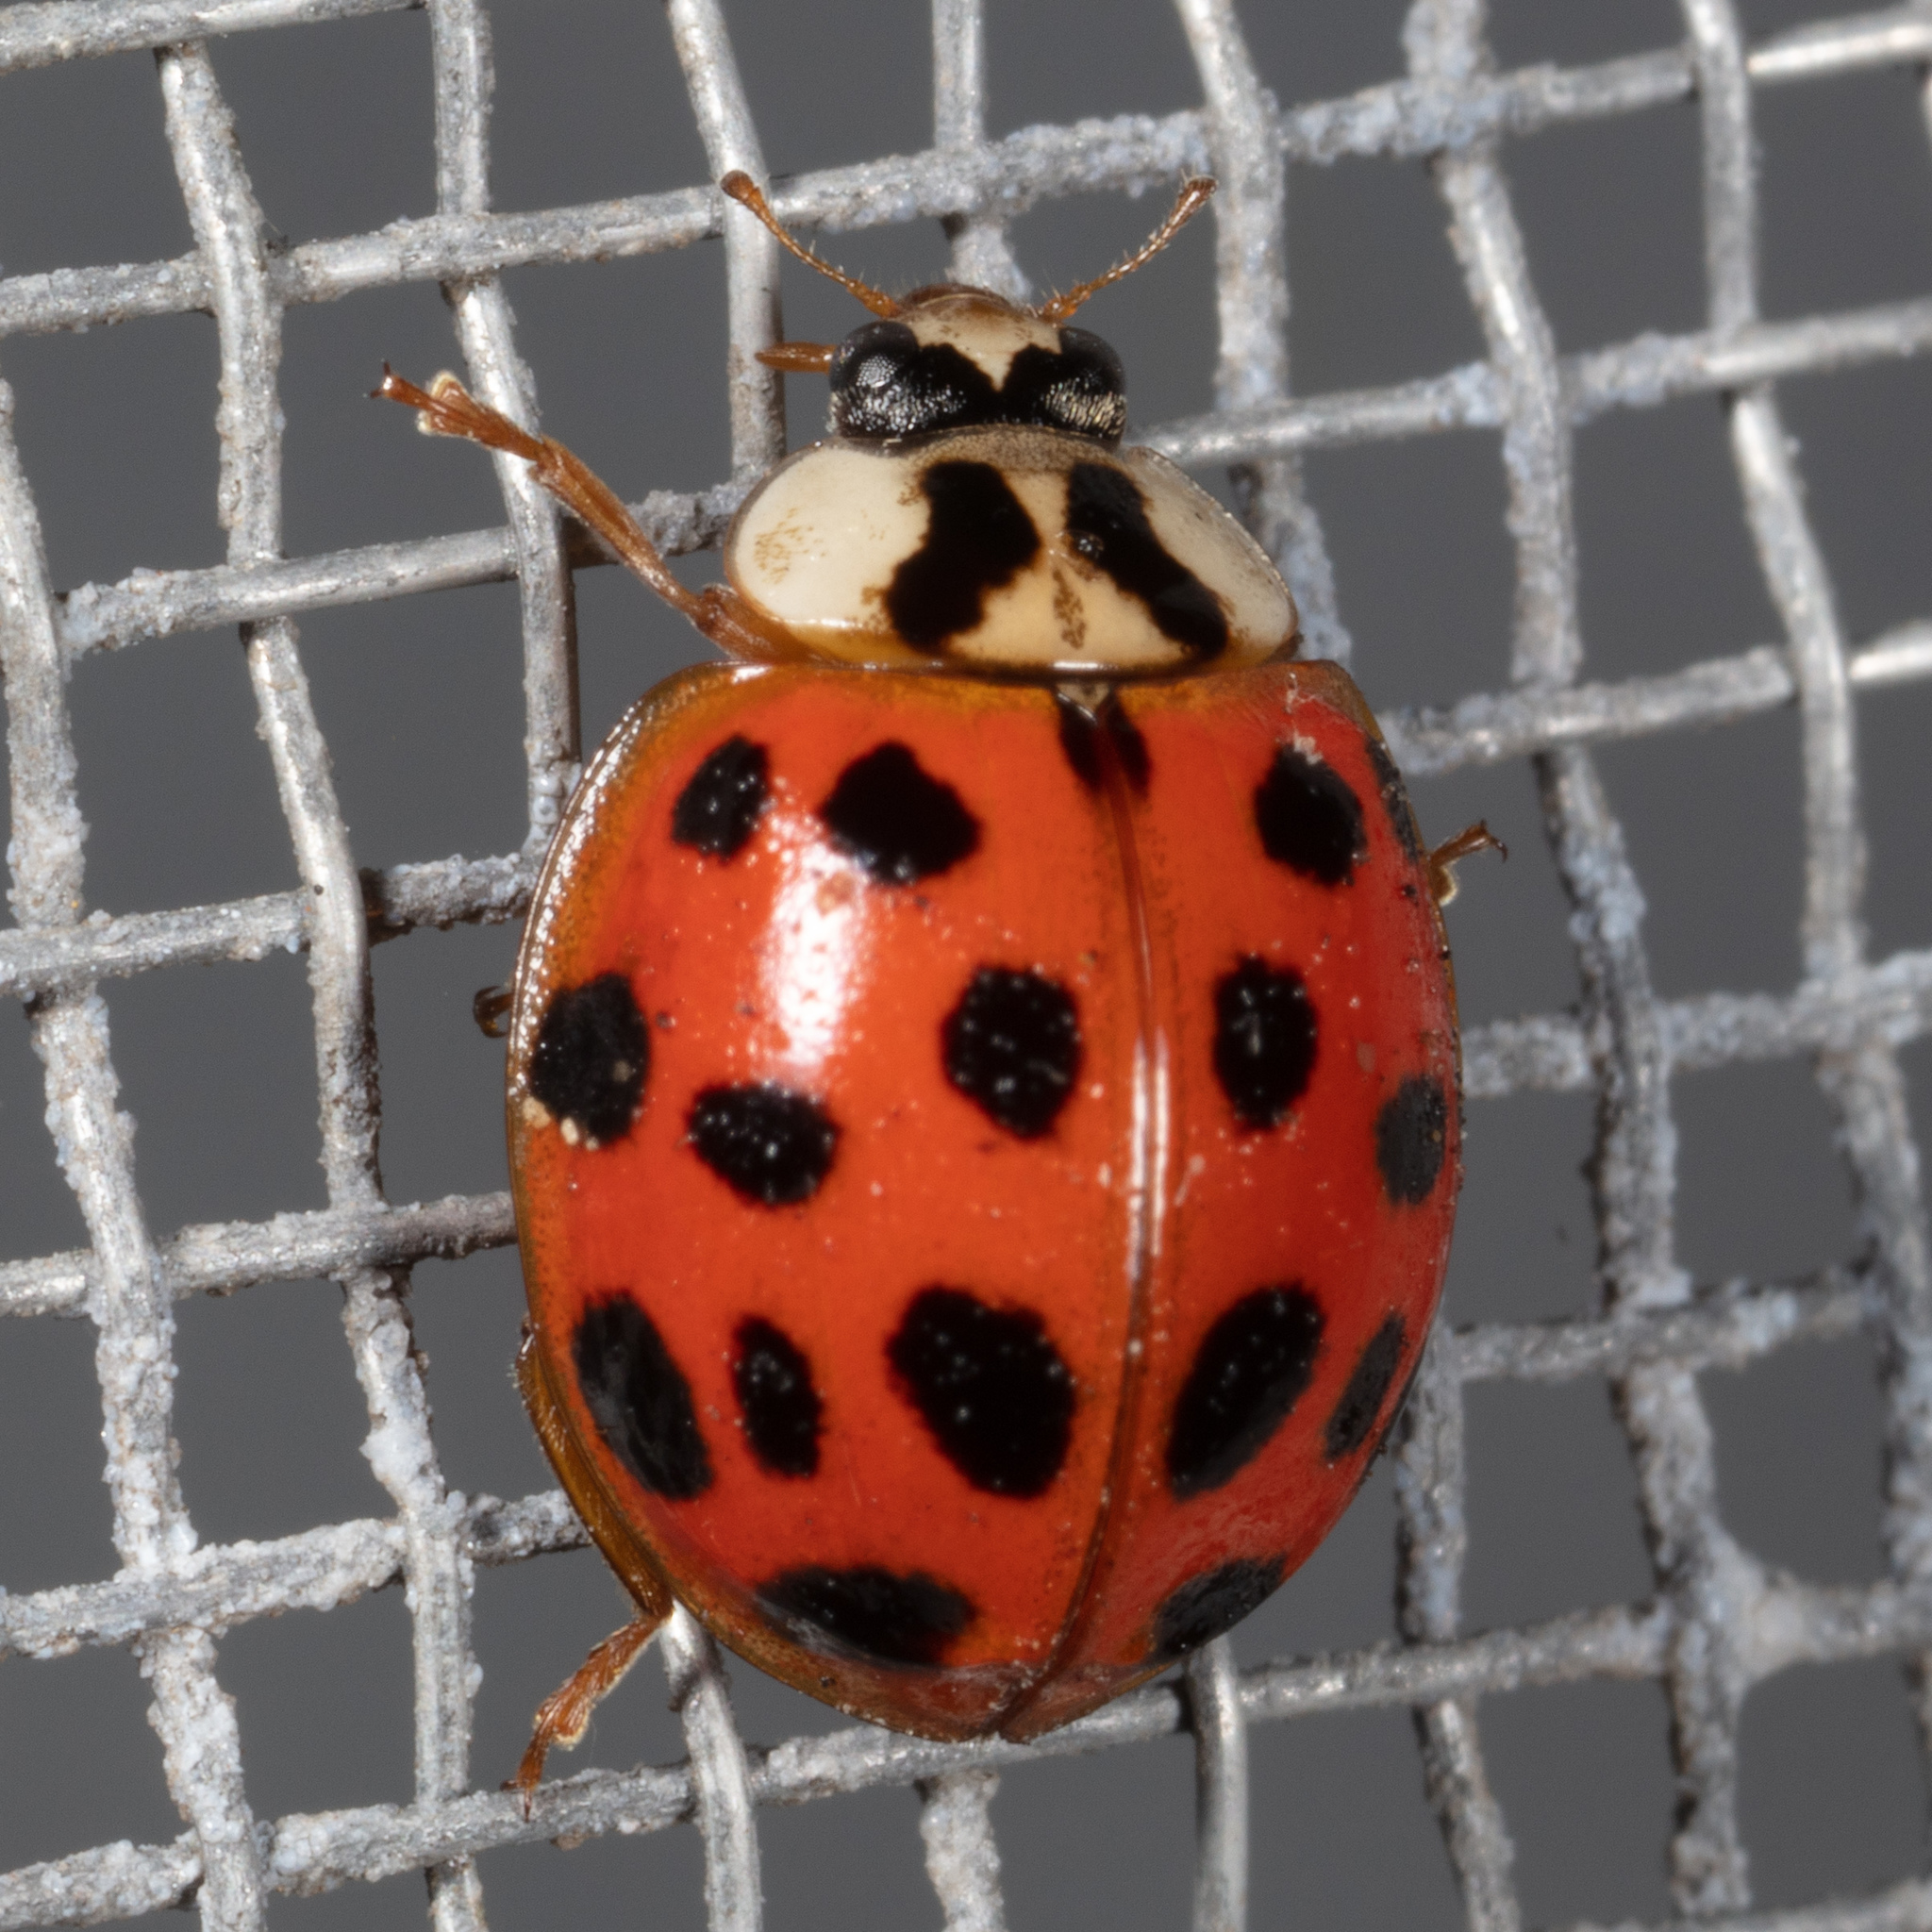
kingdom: Animalia
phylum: Arthropoda
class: Insecta
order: Coleoptera
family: Coccinellidae
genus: Harmonia
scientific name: Harmonia axyridis
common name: Harlequin ladybird
